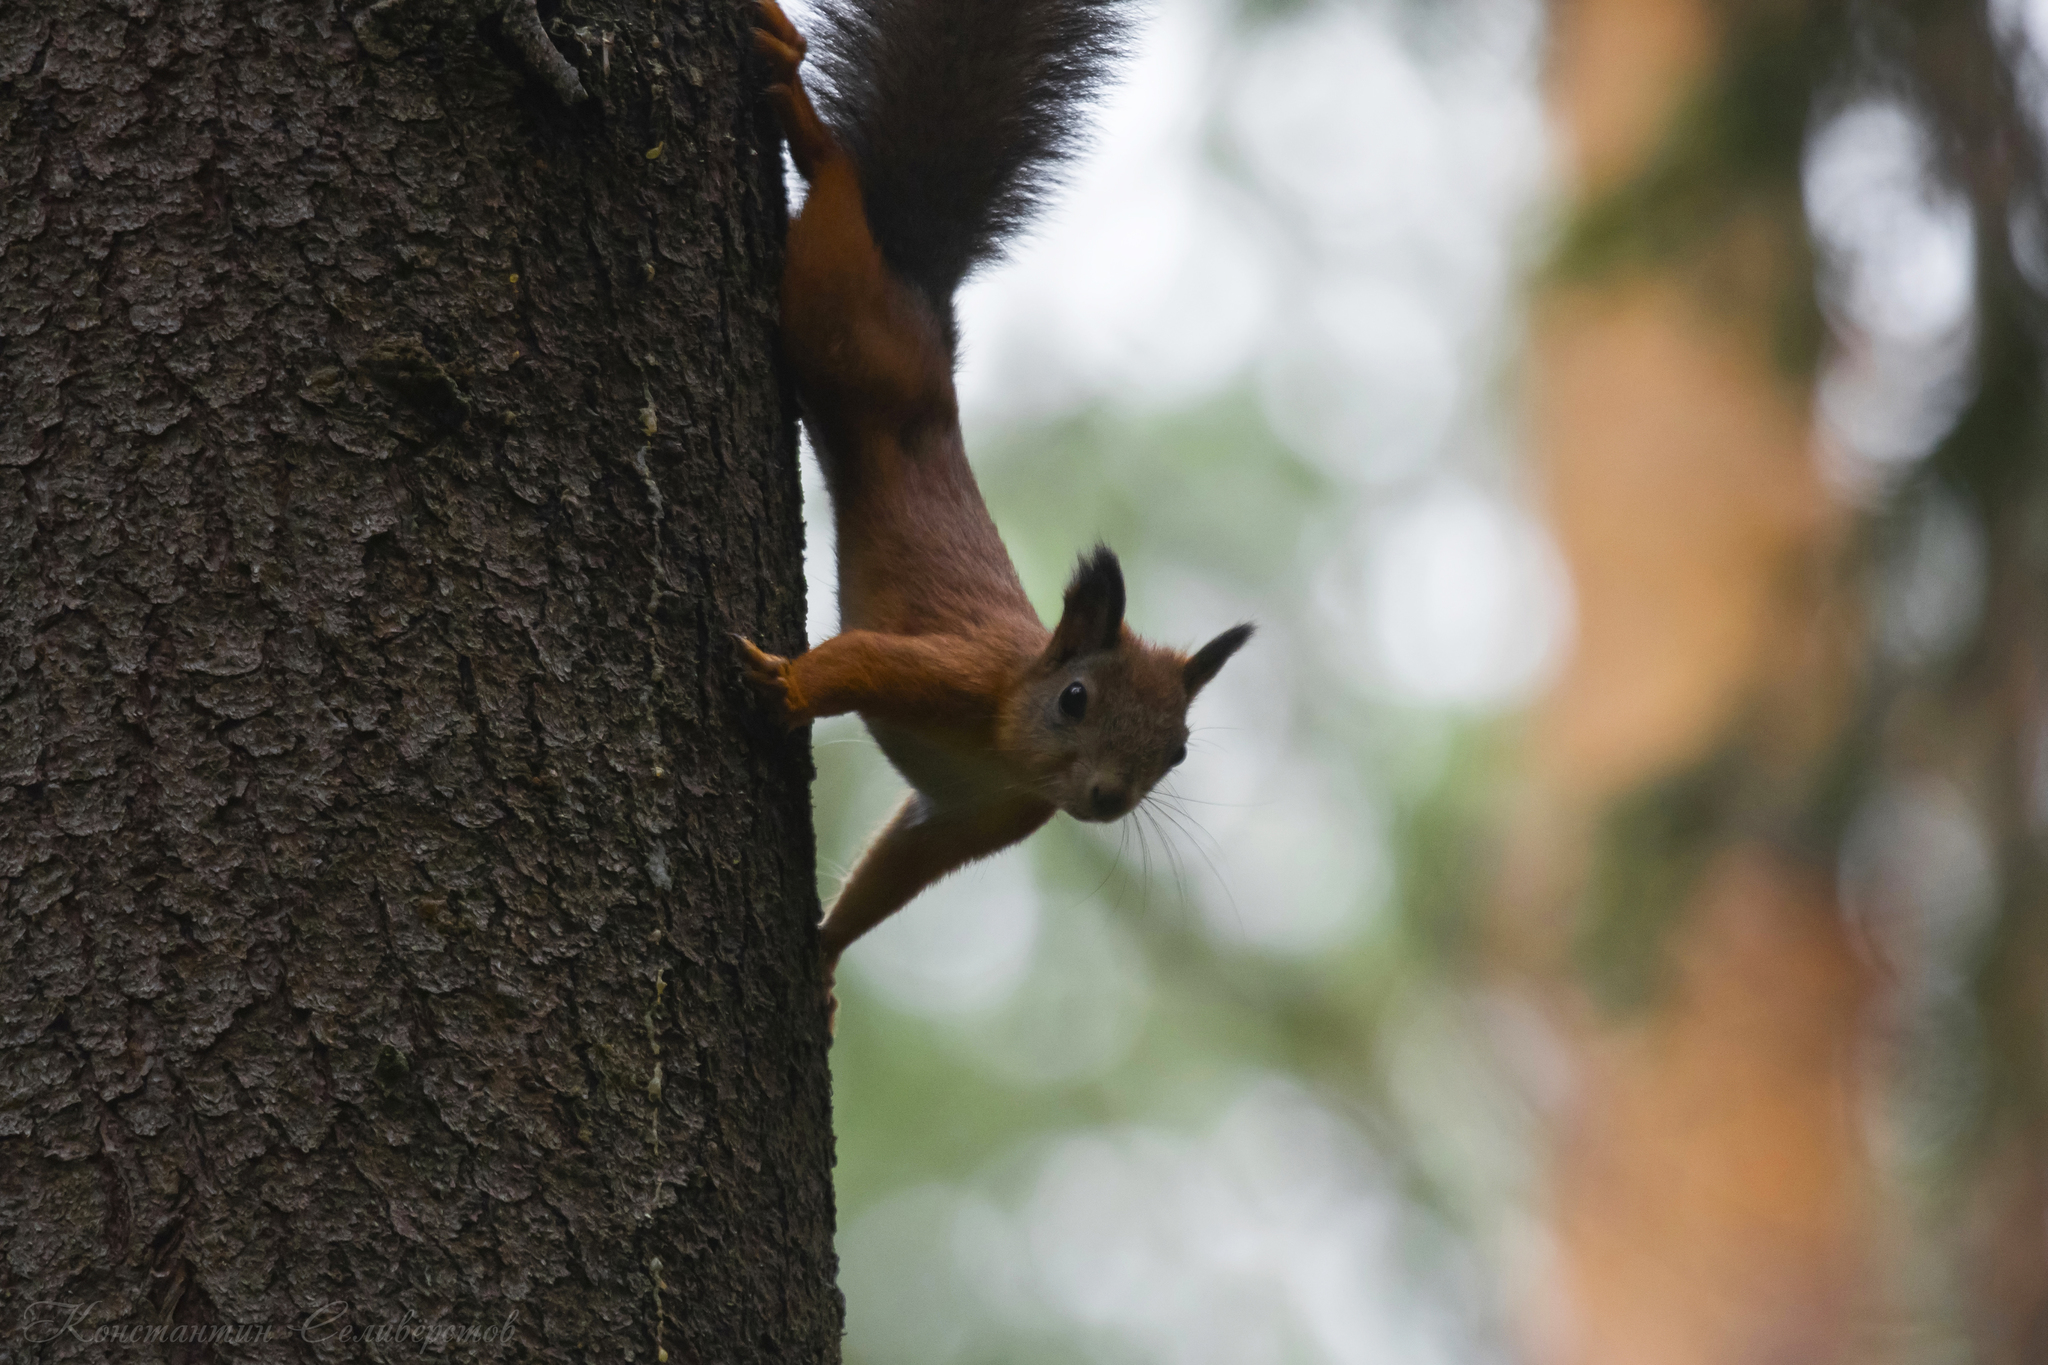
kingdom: Animalia
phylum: Chordata
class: Mammalia
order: Rodentia
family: Sciuridae
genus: Sciurus
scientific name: Sciurus vulgaris
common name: Eurasian red squirrel
